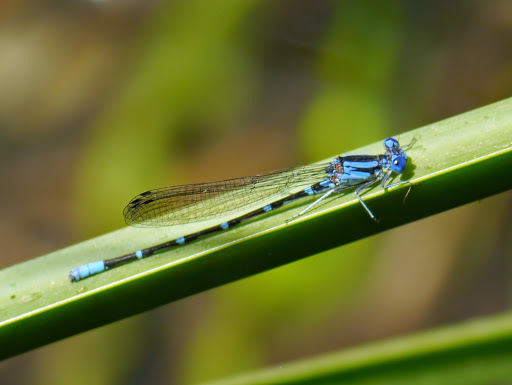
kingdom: Animalia
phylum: Arthropoda
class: Insecta
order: Odonata
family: Coenagrionidae
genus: Argia
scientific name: Argia sedula
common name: Blue-ringed dancer
